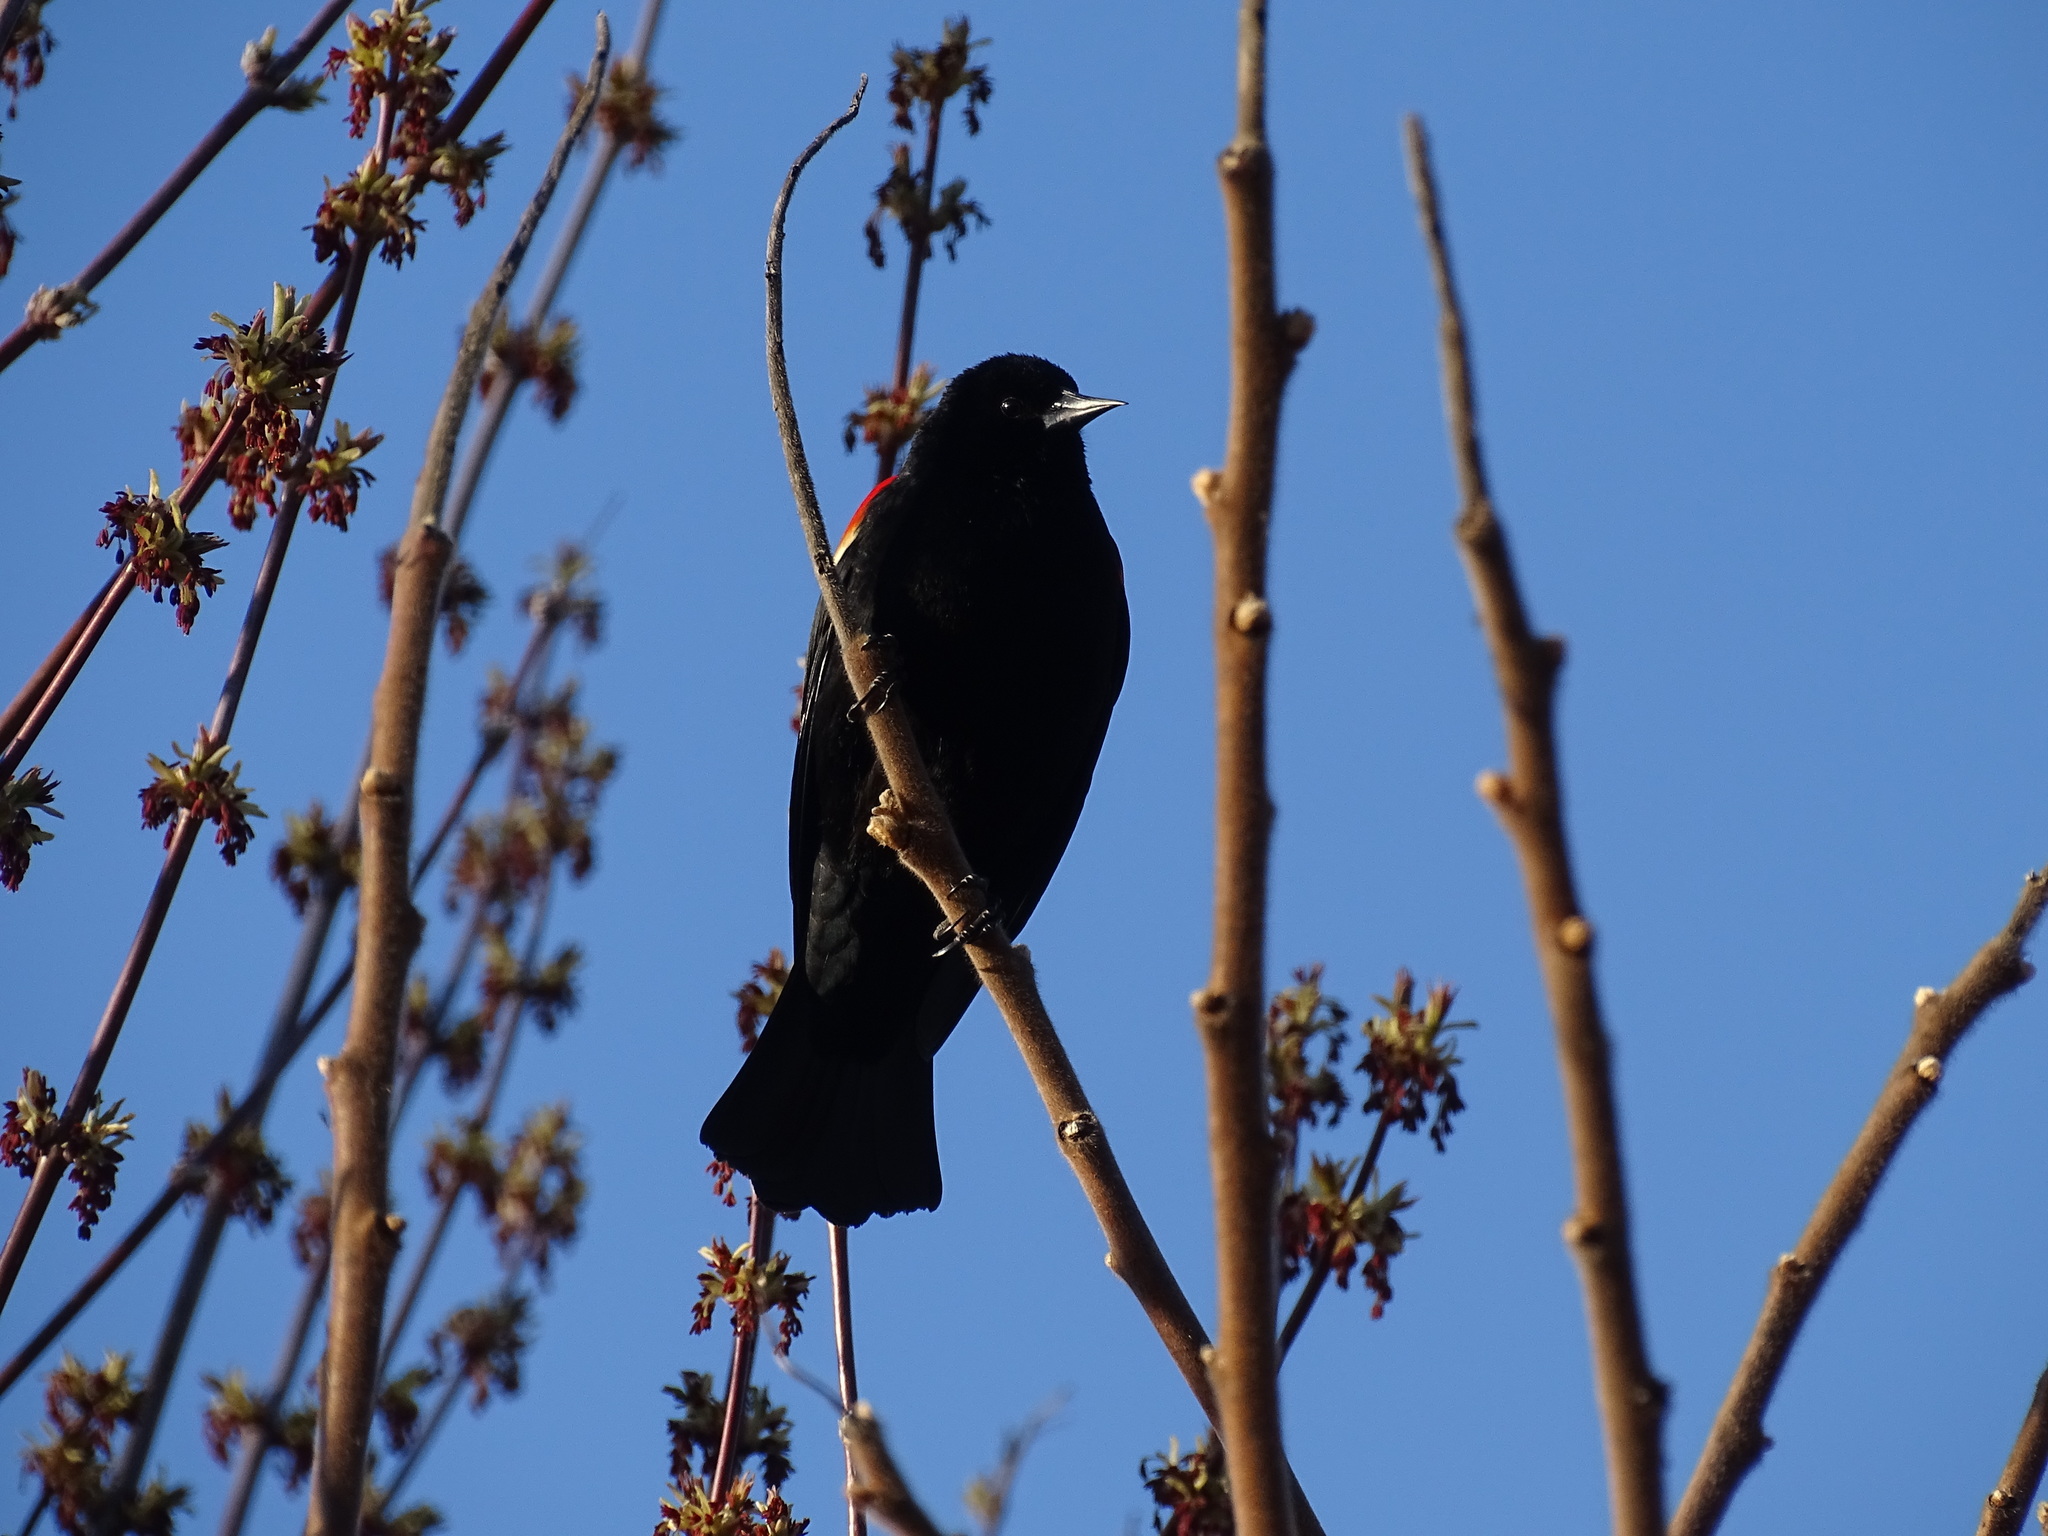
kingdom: Animalia
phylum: Chordata
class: Aves
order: Passeriformes
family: Icteridae
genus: Agelaius
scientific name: Agelaius phoeniceus
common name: Red-winged blackbird
